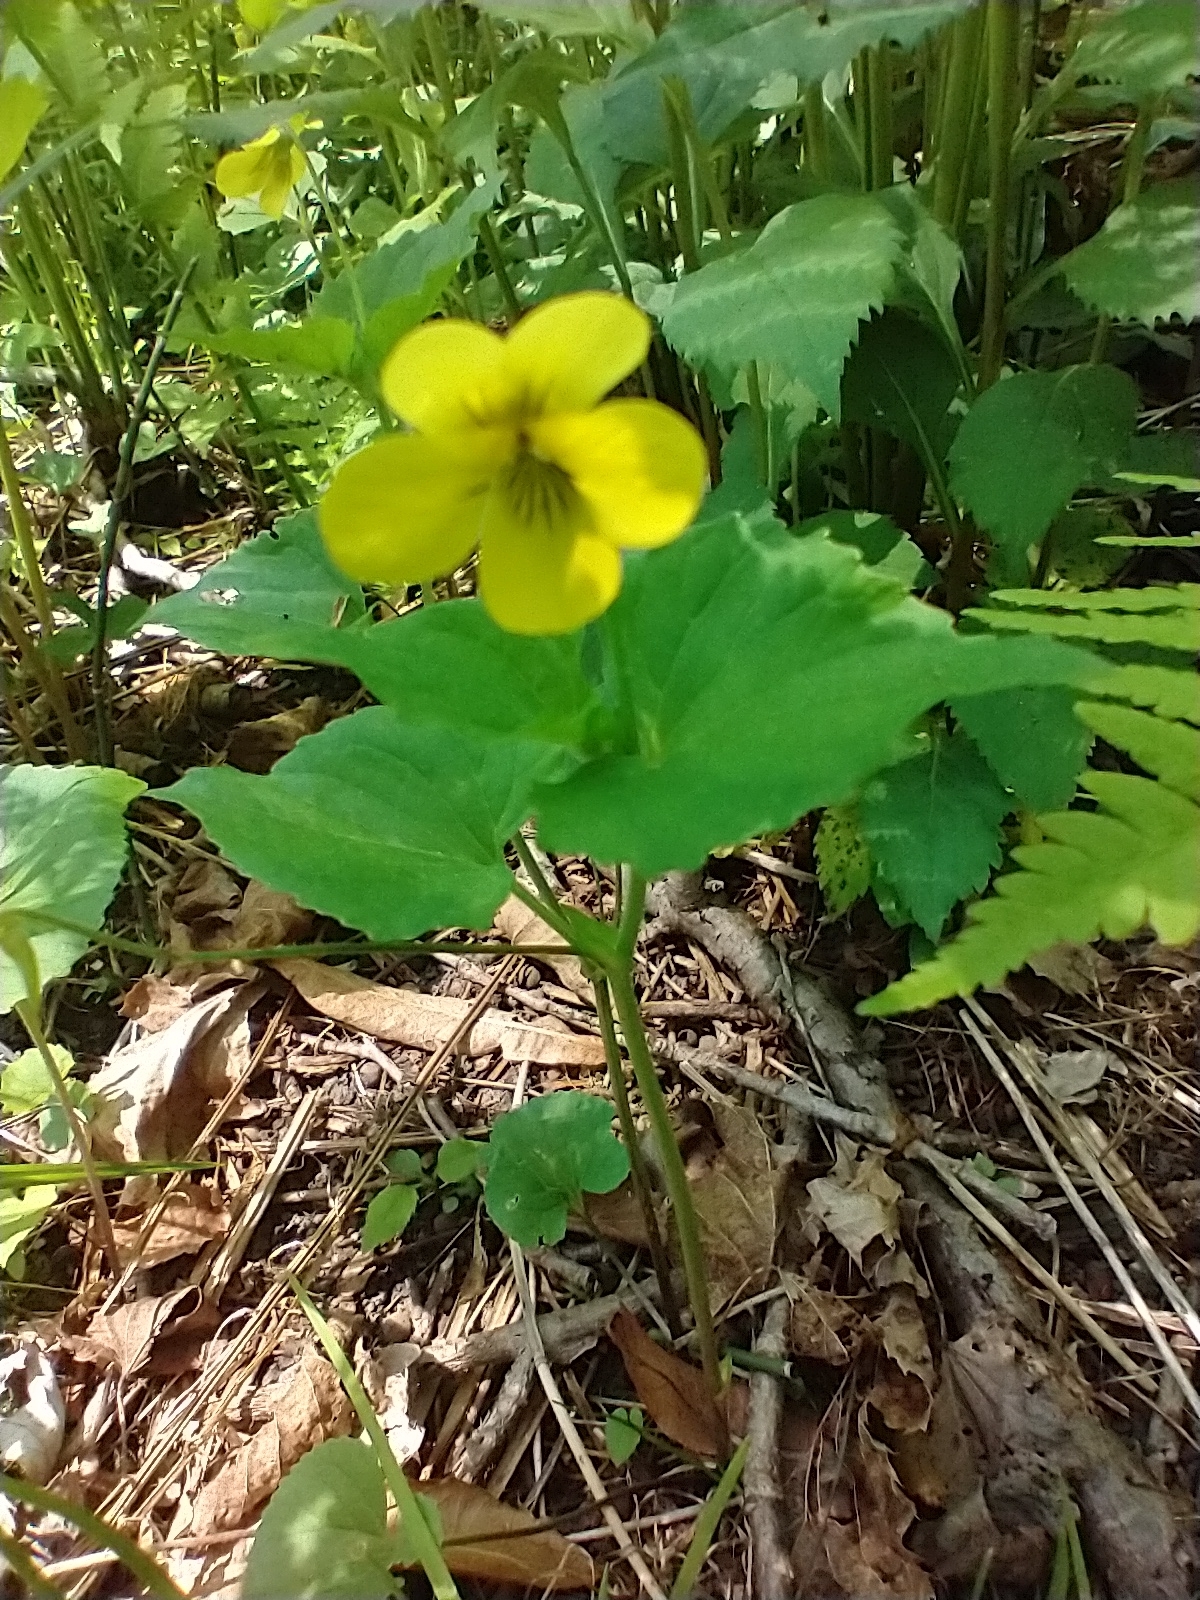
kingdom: Plantae
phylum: Tracheophyta
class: Magnoliopsida
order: Malpighiales
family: Violaceae
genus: Viola
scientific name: Viola eriocarpa
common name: Smooth yellow violet
